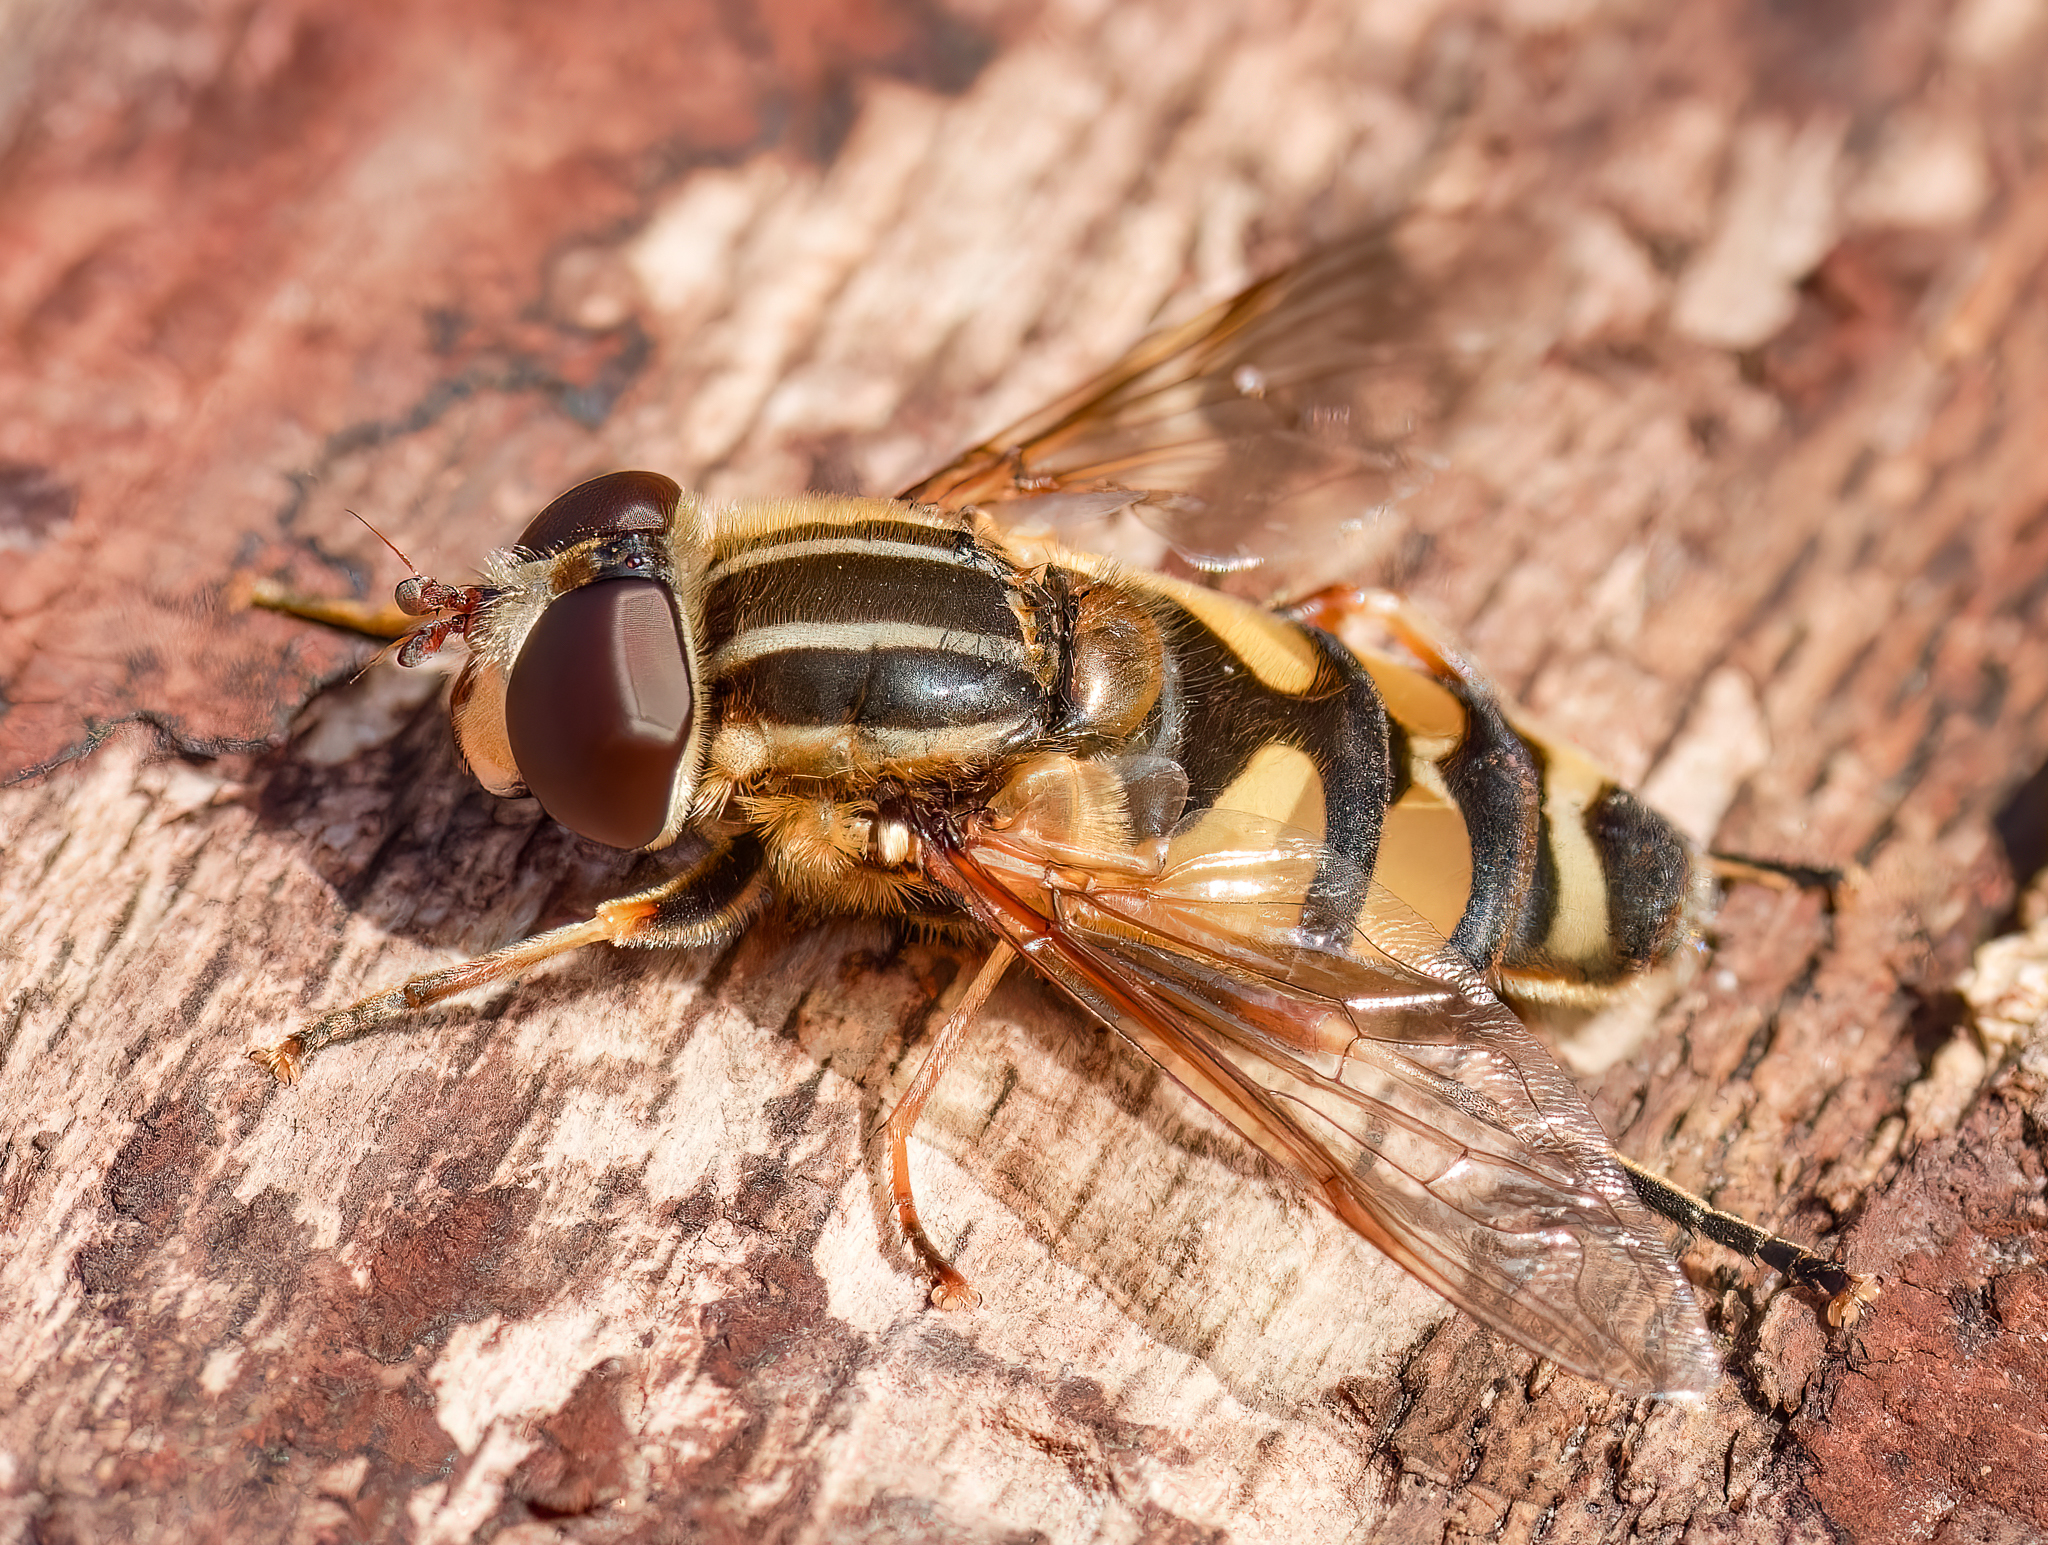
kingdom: Animalia
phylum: Arthropoda
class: Insecta
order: Diptera
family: Syrphidae
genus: Helophilus
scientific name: Helophilus fasciatus
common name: Narrow-headed marsh fly
